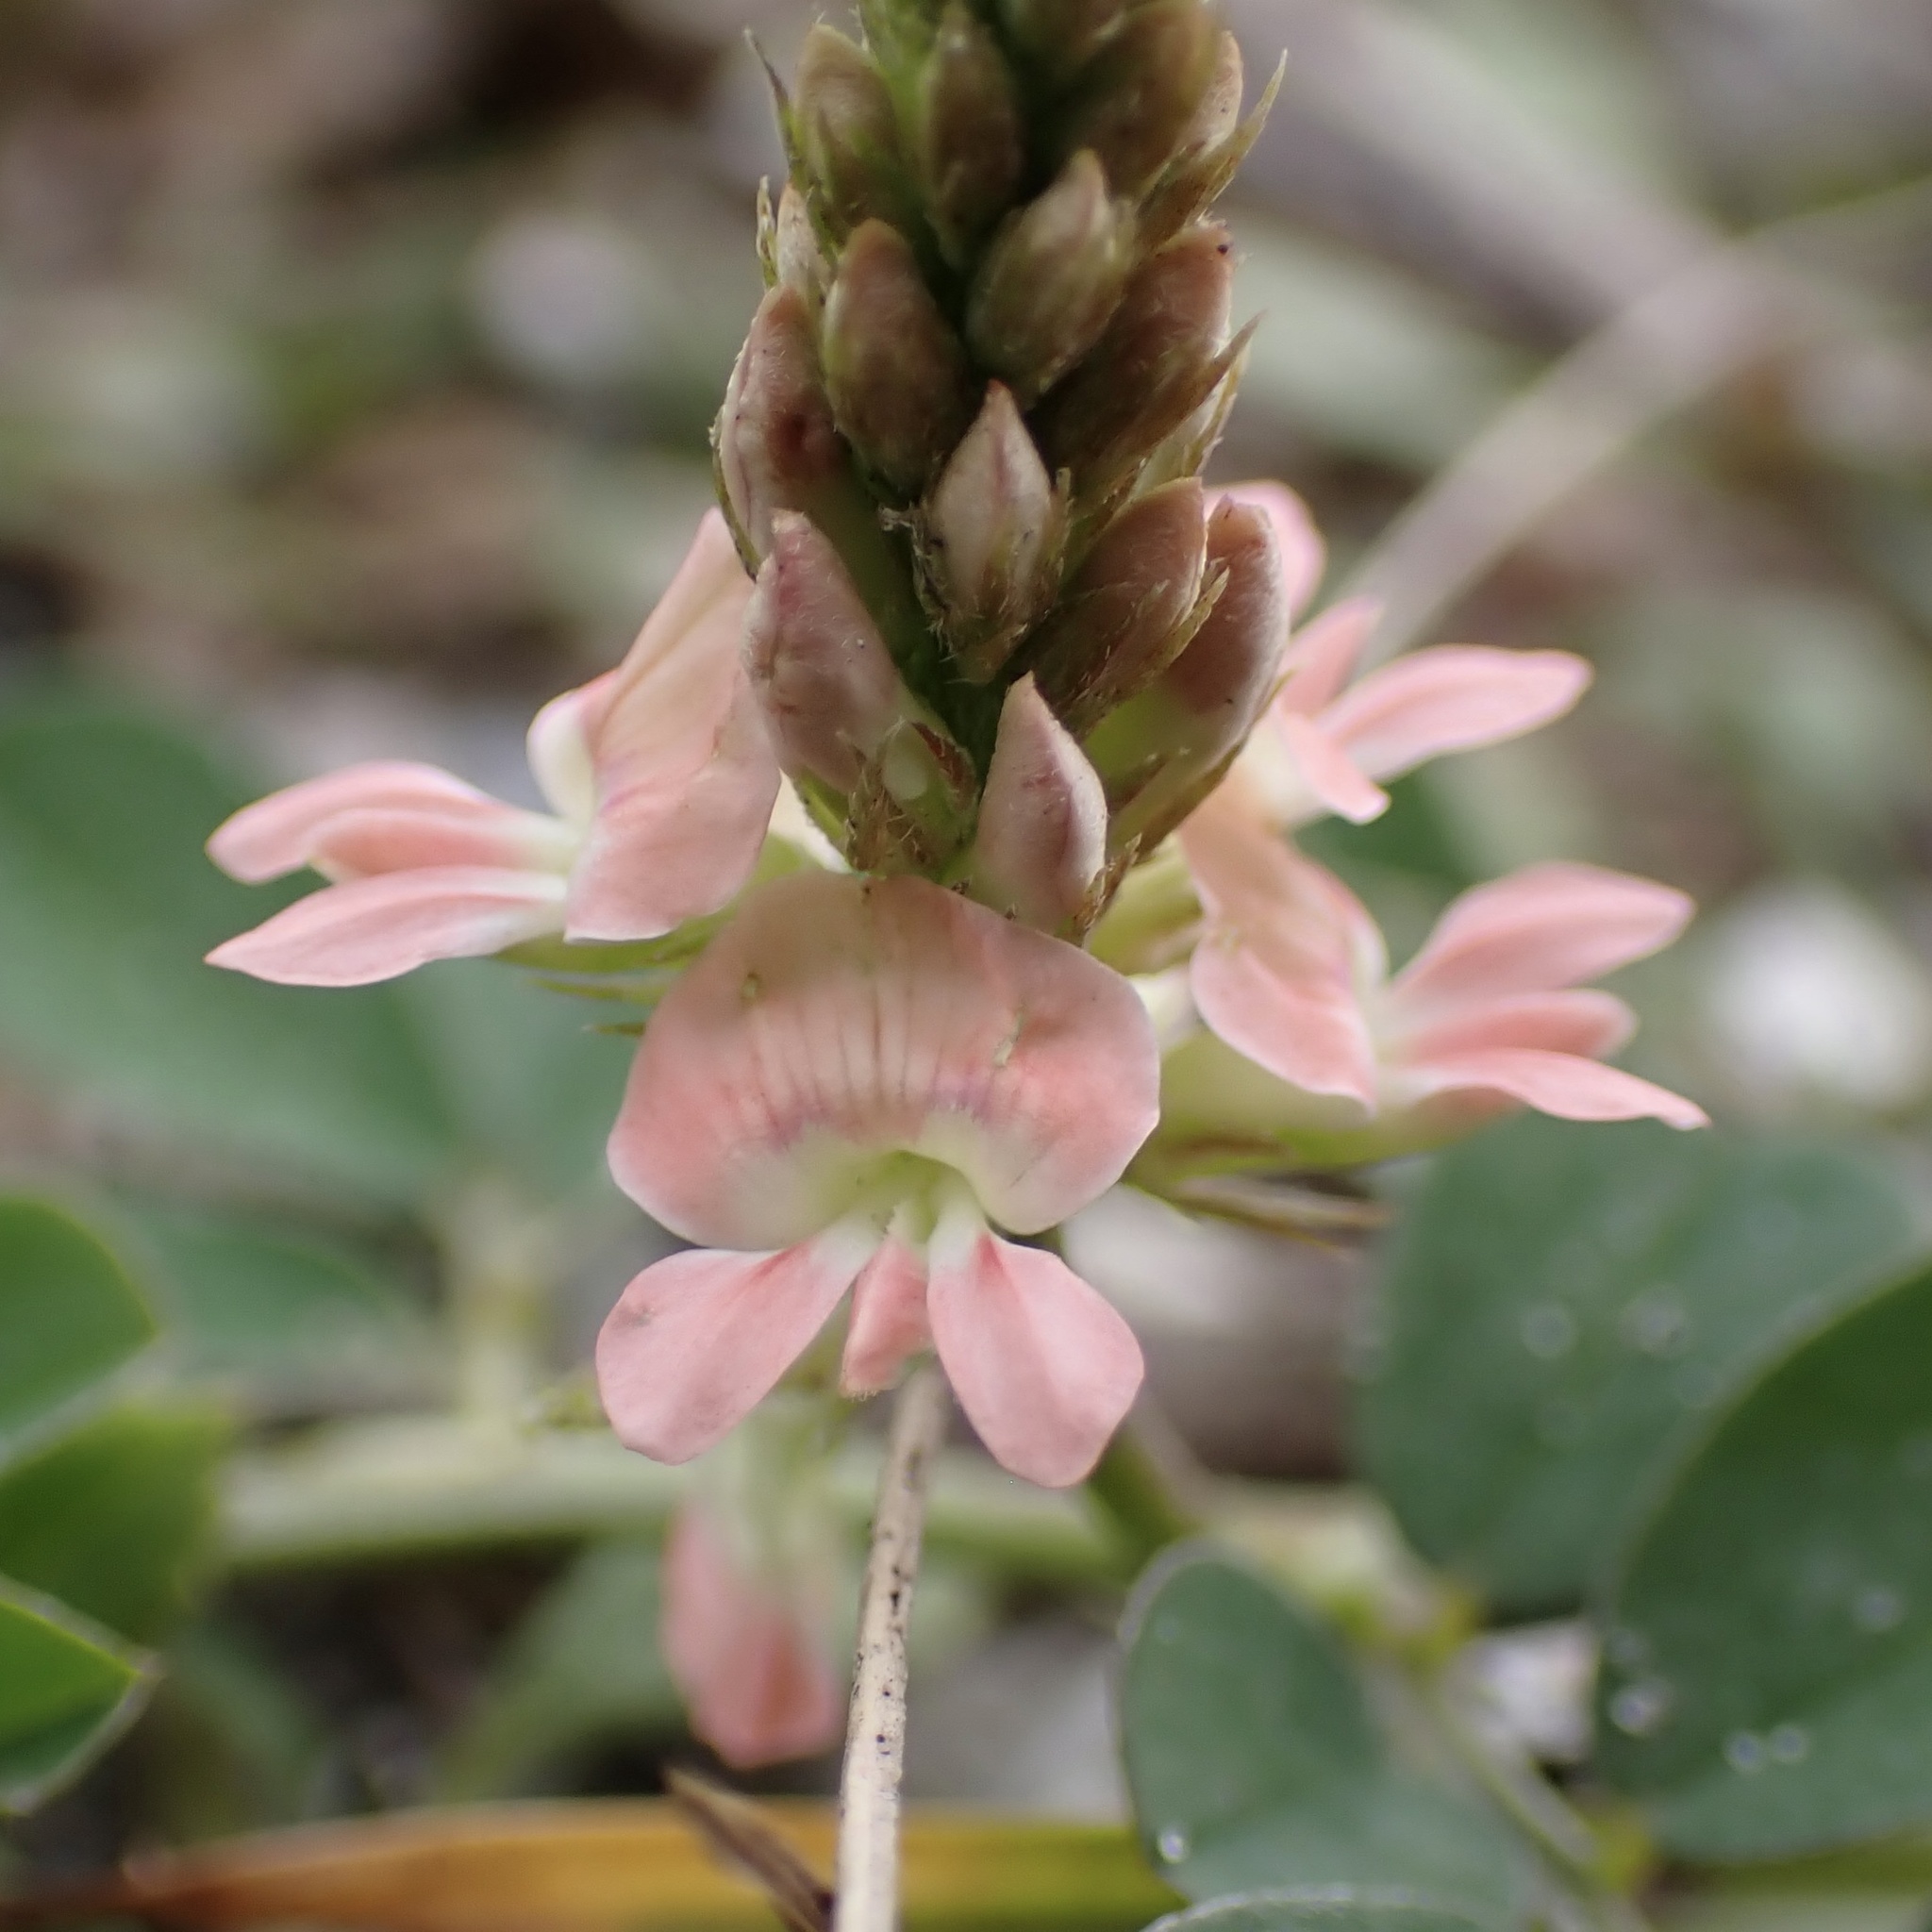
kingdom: Plantae
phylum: Tracheophyta
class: Magnoliopsida
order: Fabales
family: Fabaceae
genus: Indigofera
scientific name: Indigofera spicata
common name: Creeping indigo
